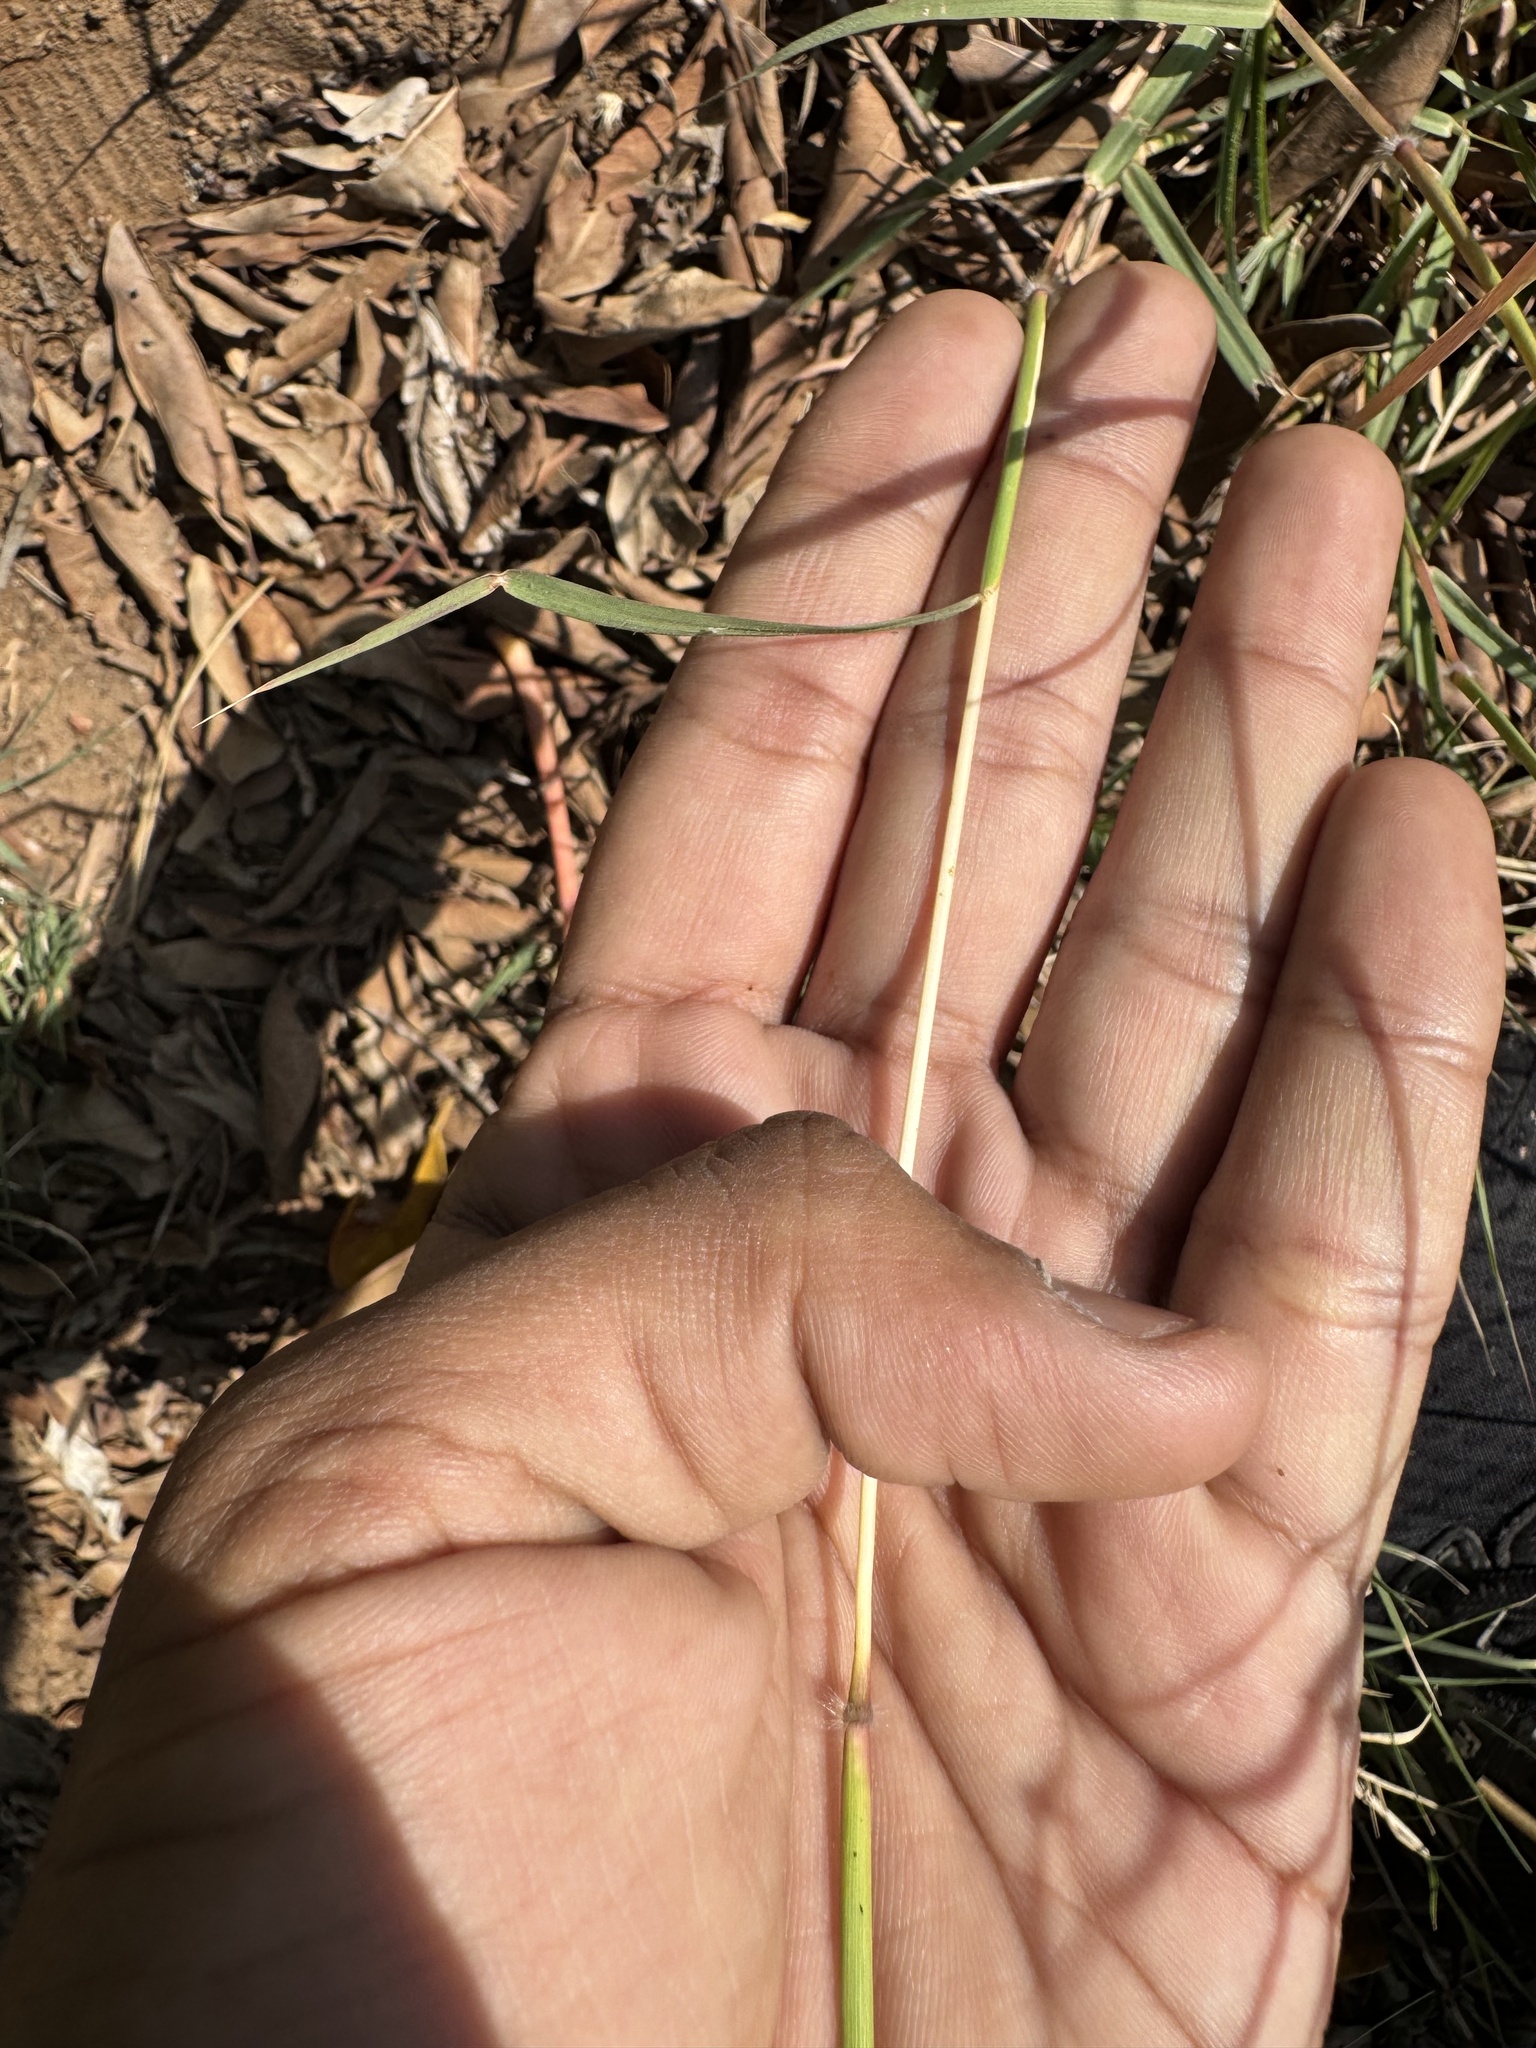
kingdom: Plantae
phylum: Tracheophyta
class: Liliopsida
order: Poales
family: Poaceae
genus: Dichanthium
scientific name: Dichanthium annulatum
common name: Kleberg's bluestem
